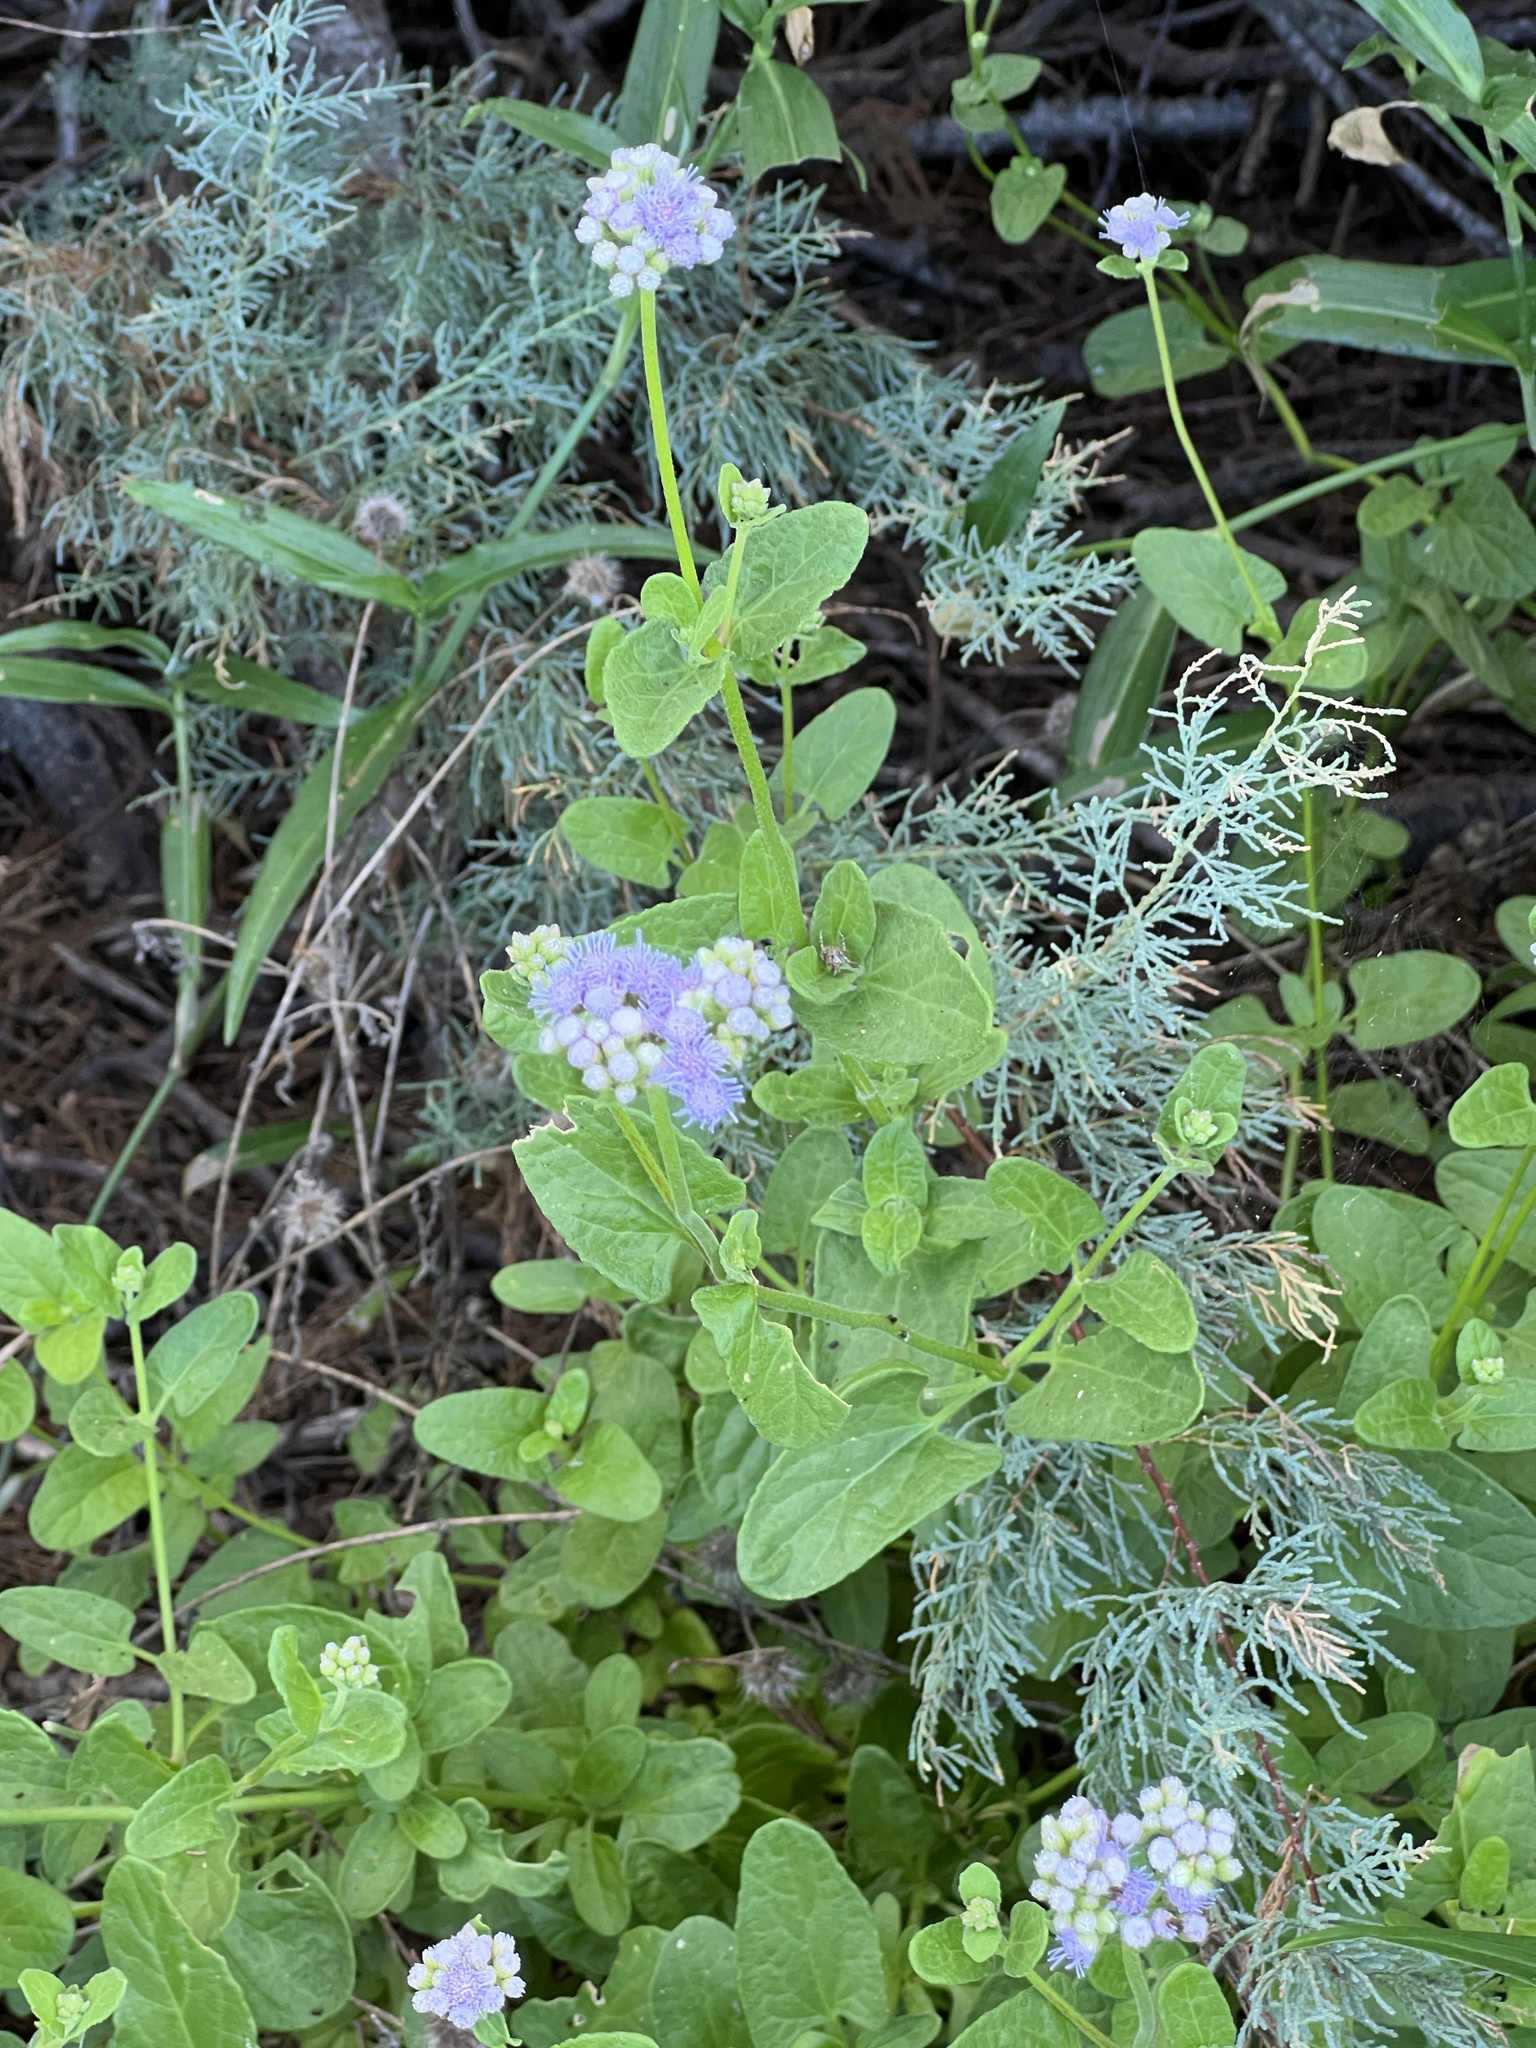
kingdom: Plantae
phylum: Tracheophyta
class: Magnoliopsida
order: Asterales
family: Asteraceae
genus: Conoclinium
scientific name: Conoclinium betonicifolium
